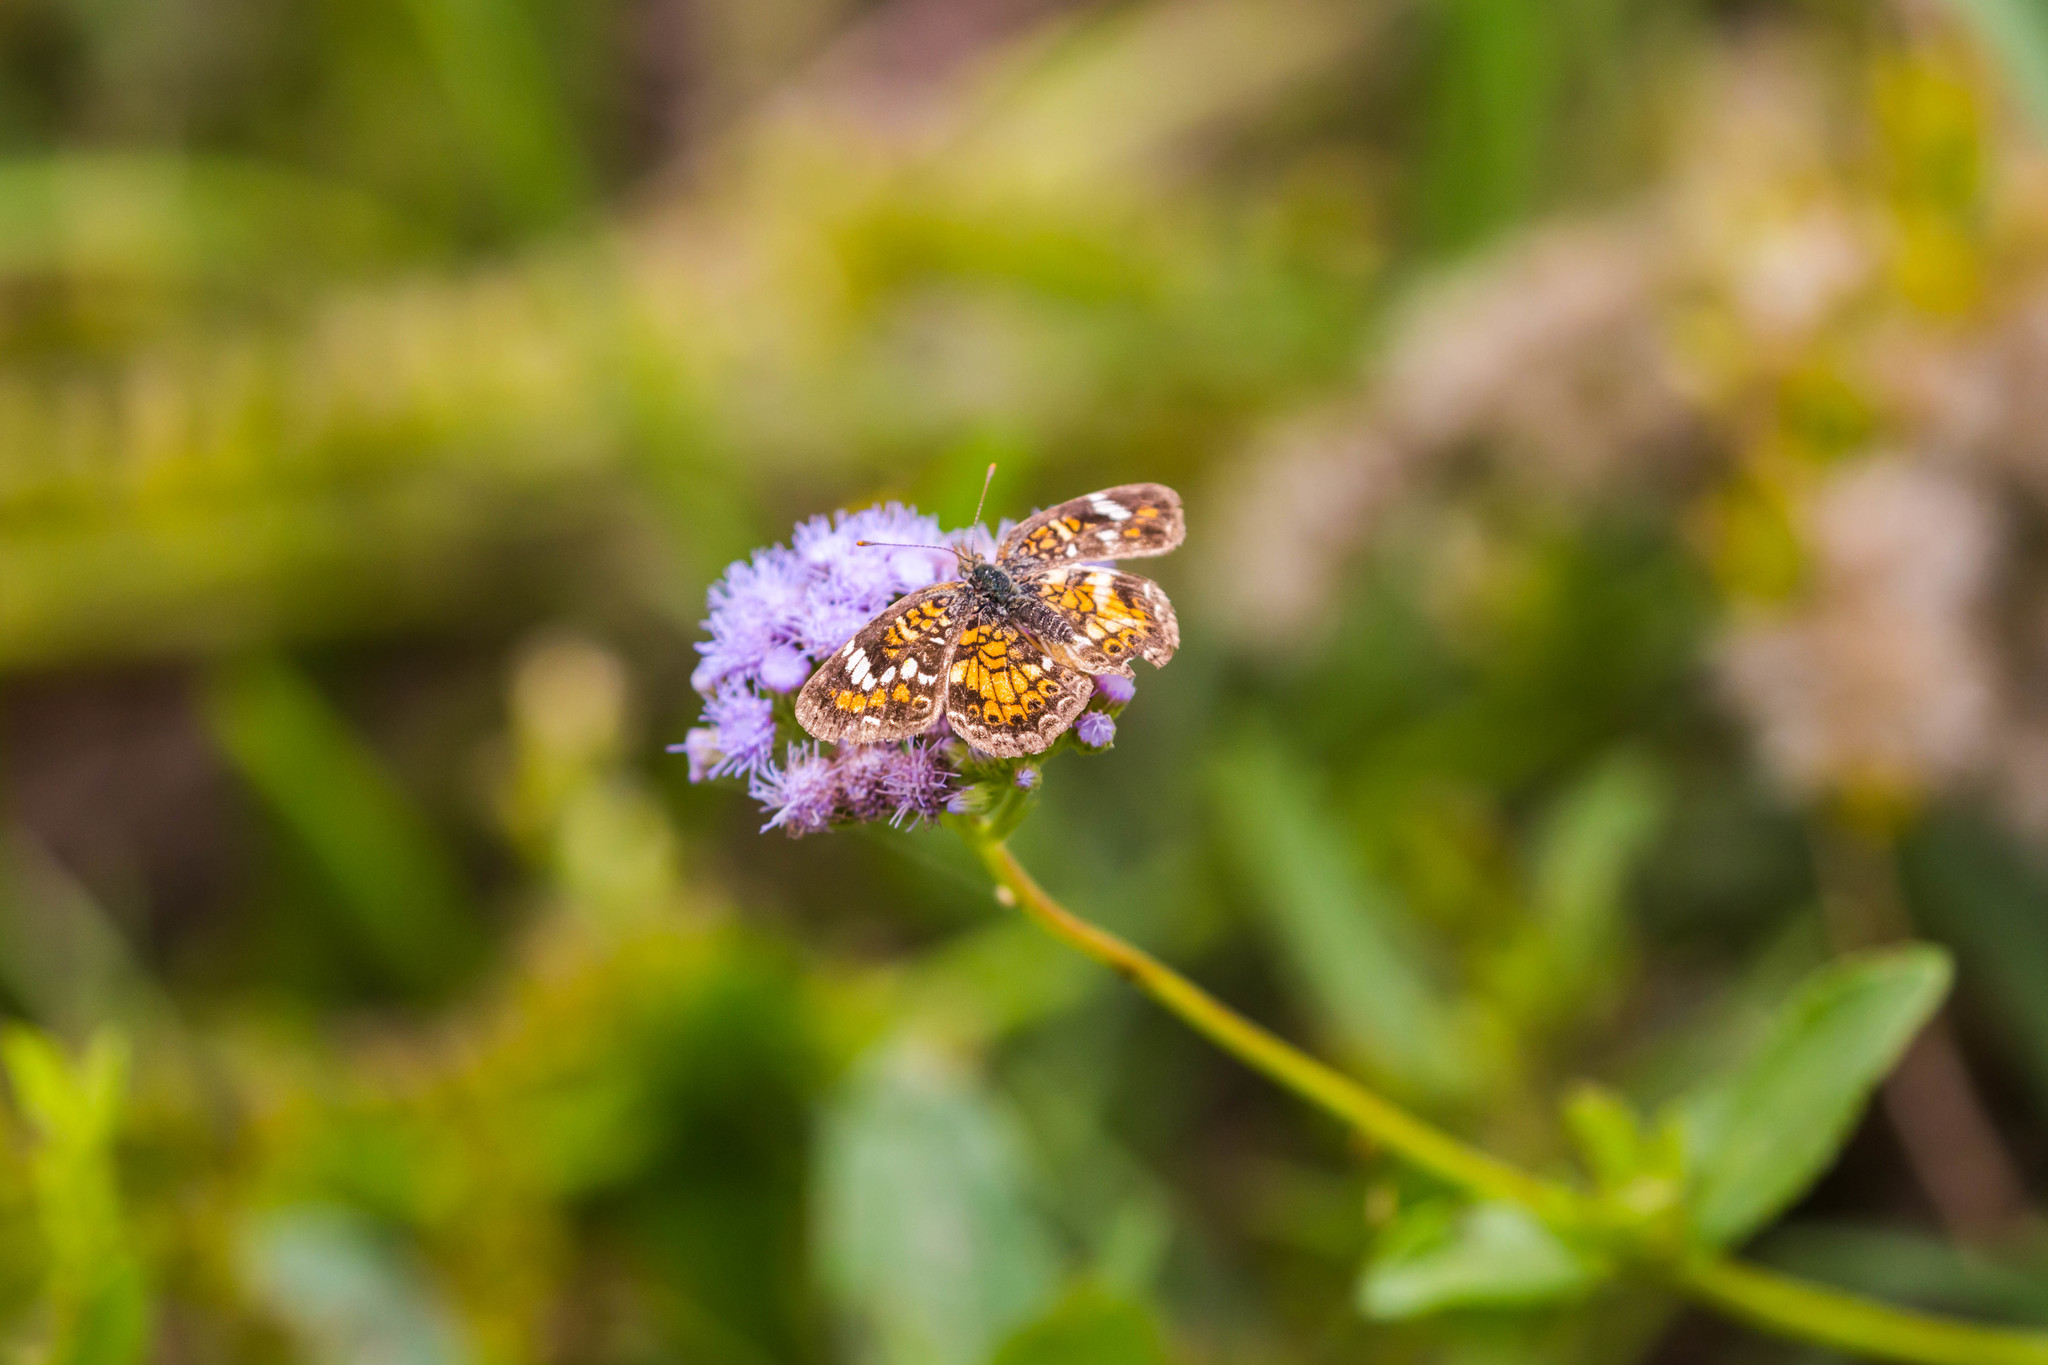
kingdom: Animalia
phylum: Arthropoda
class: Insecta
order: Lepidoptera
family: Nymphalidae
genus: Phyciodes
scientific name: Phyciodes phaon
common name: Phaon crescent
